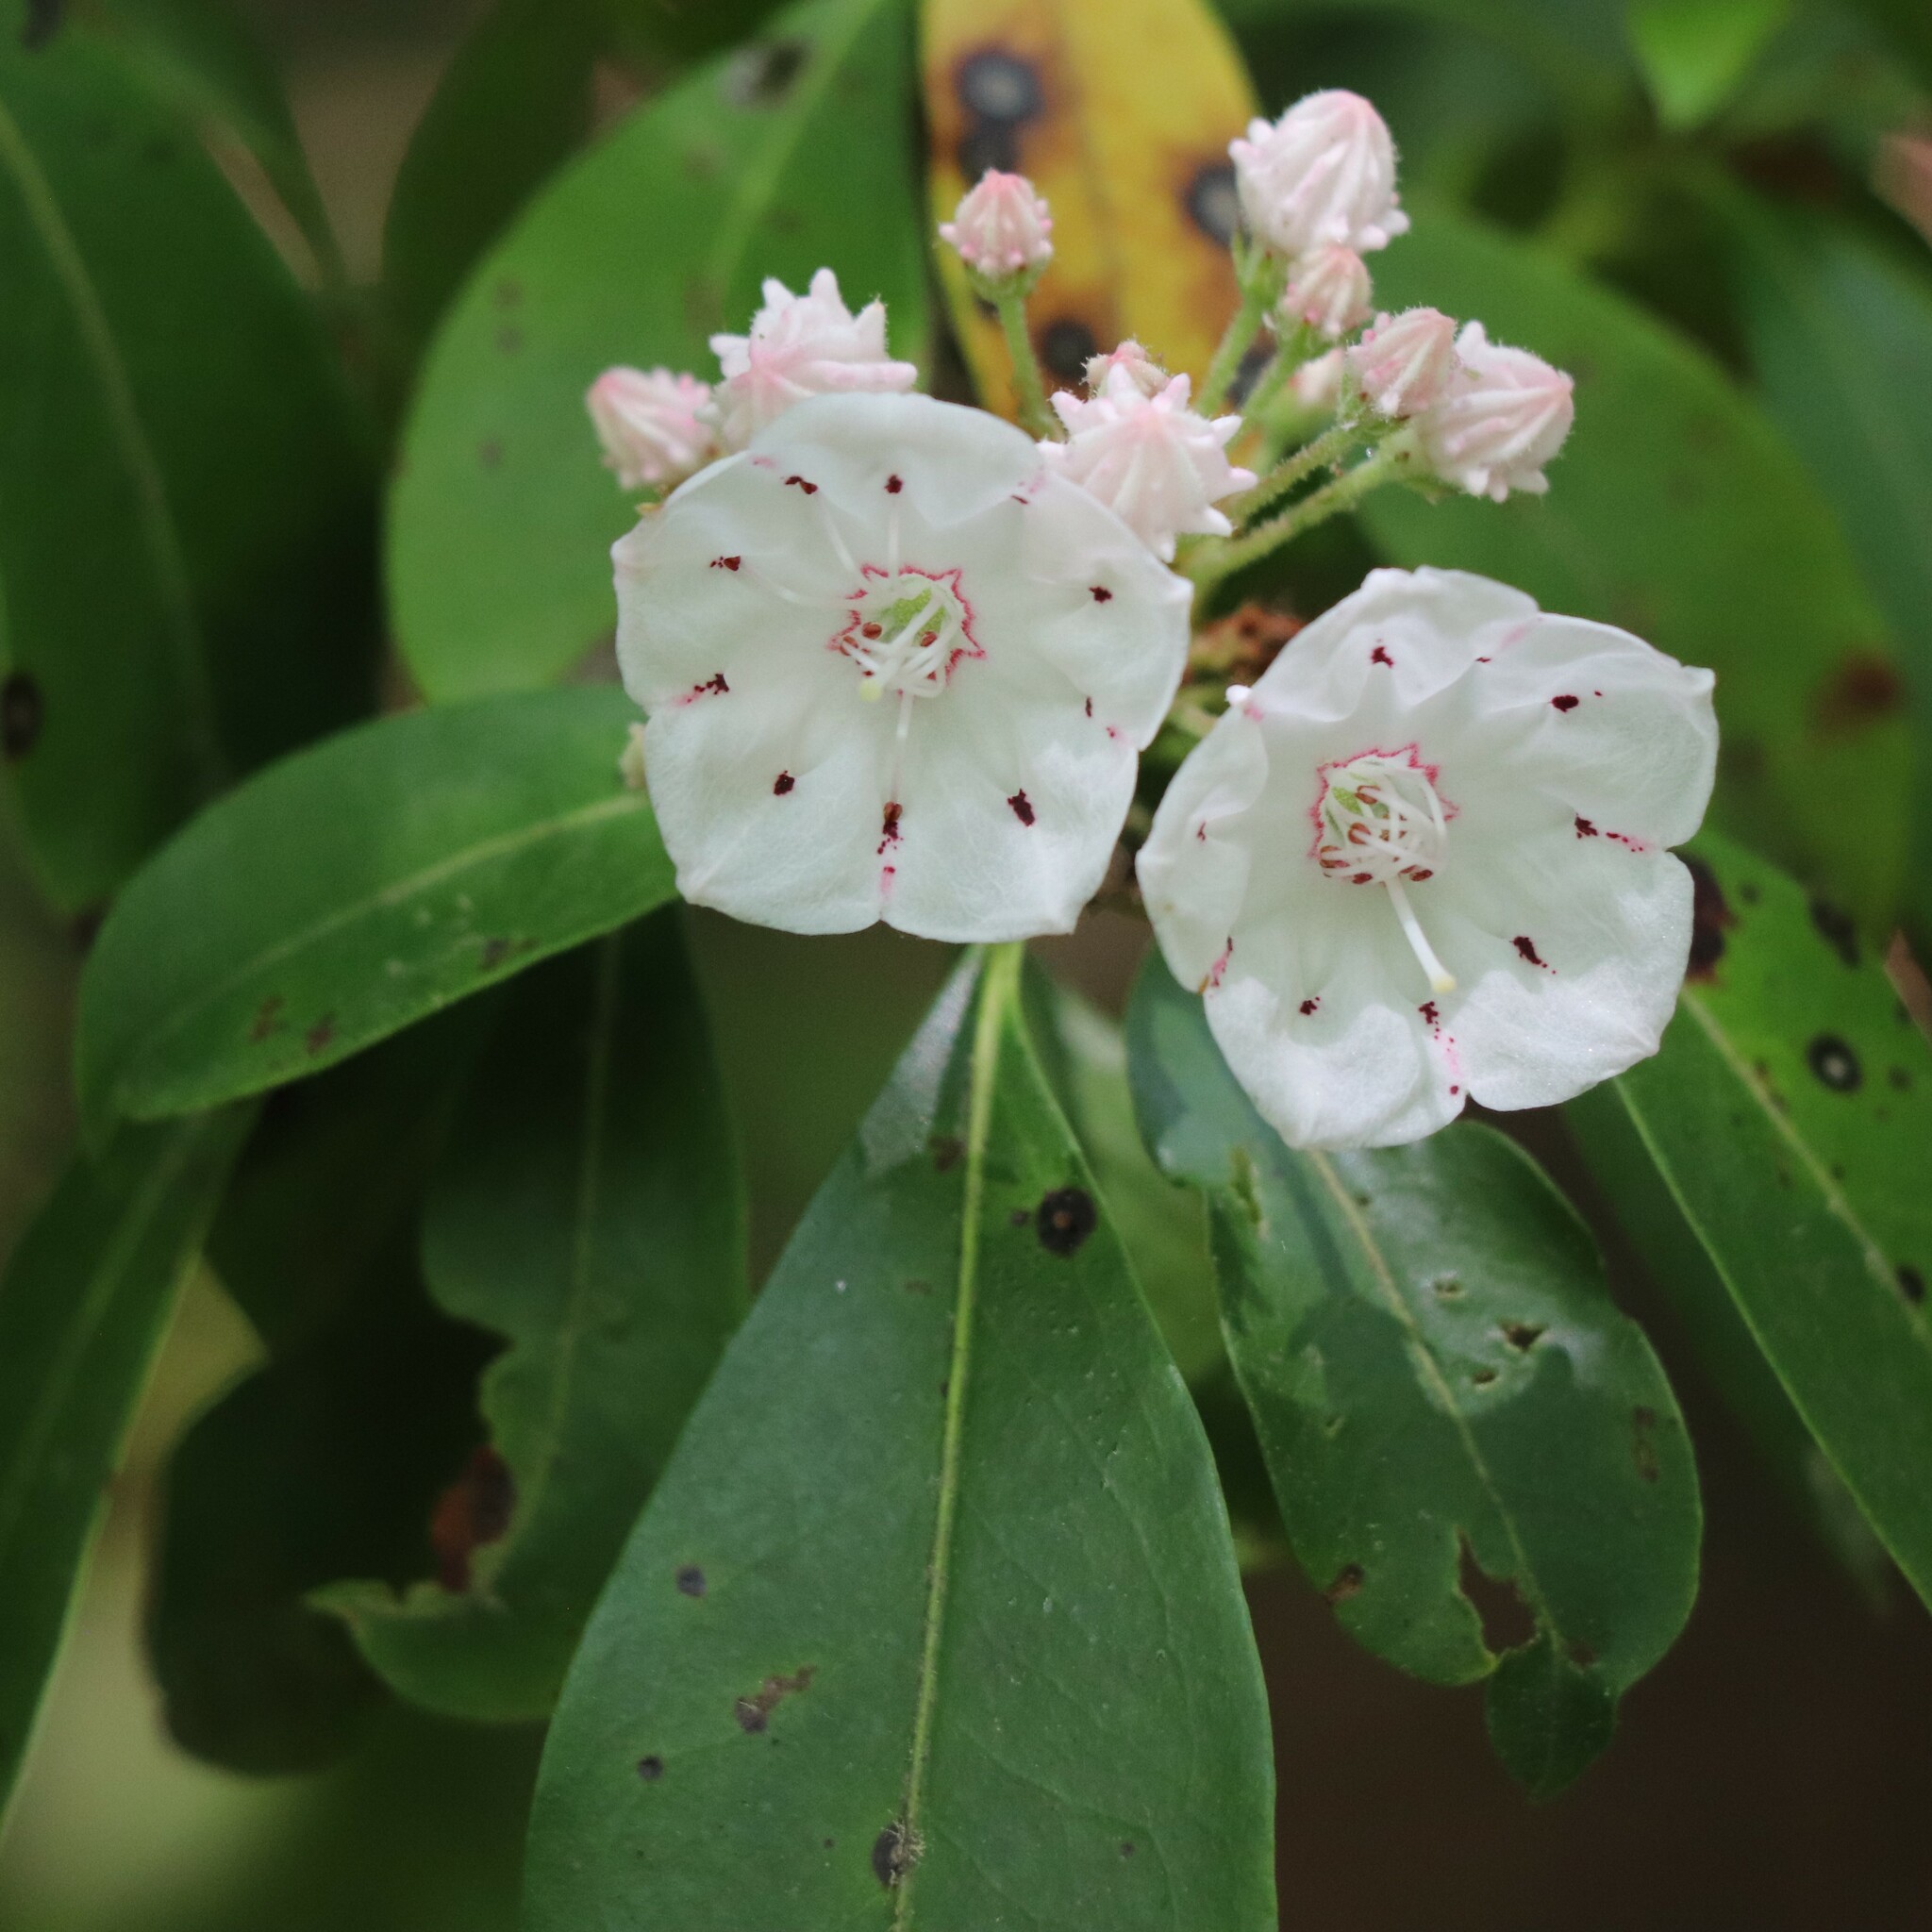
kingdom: Plantae
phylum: Tracheophyta
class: Magnoliopsida
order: Ericales
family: Ericaceae
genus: Kalmia
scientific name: Kalmia latifolia
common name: Mountain-laurel
